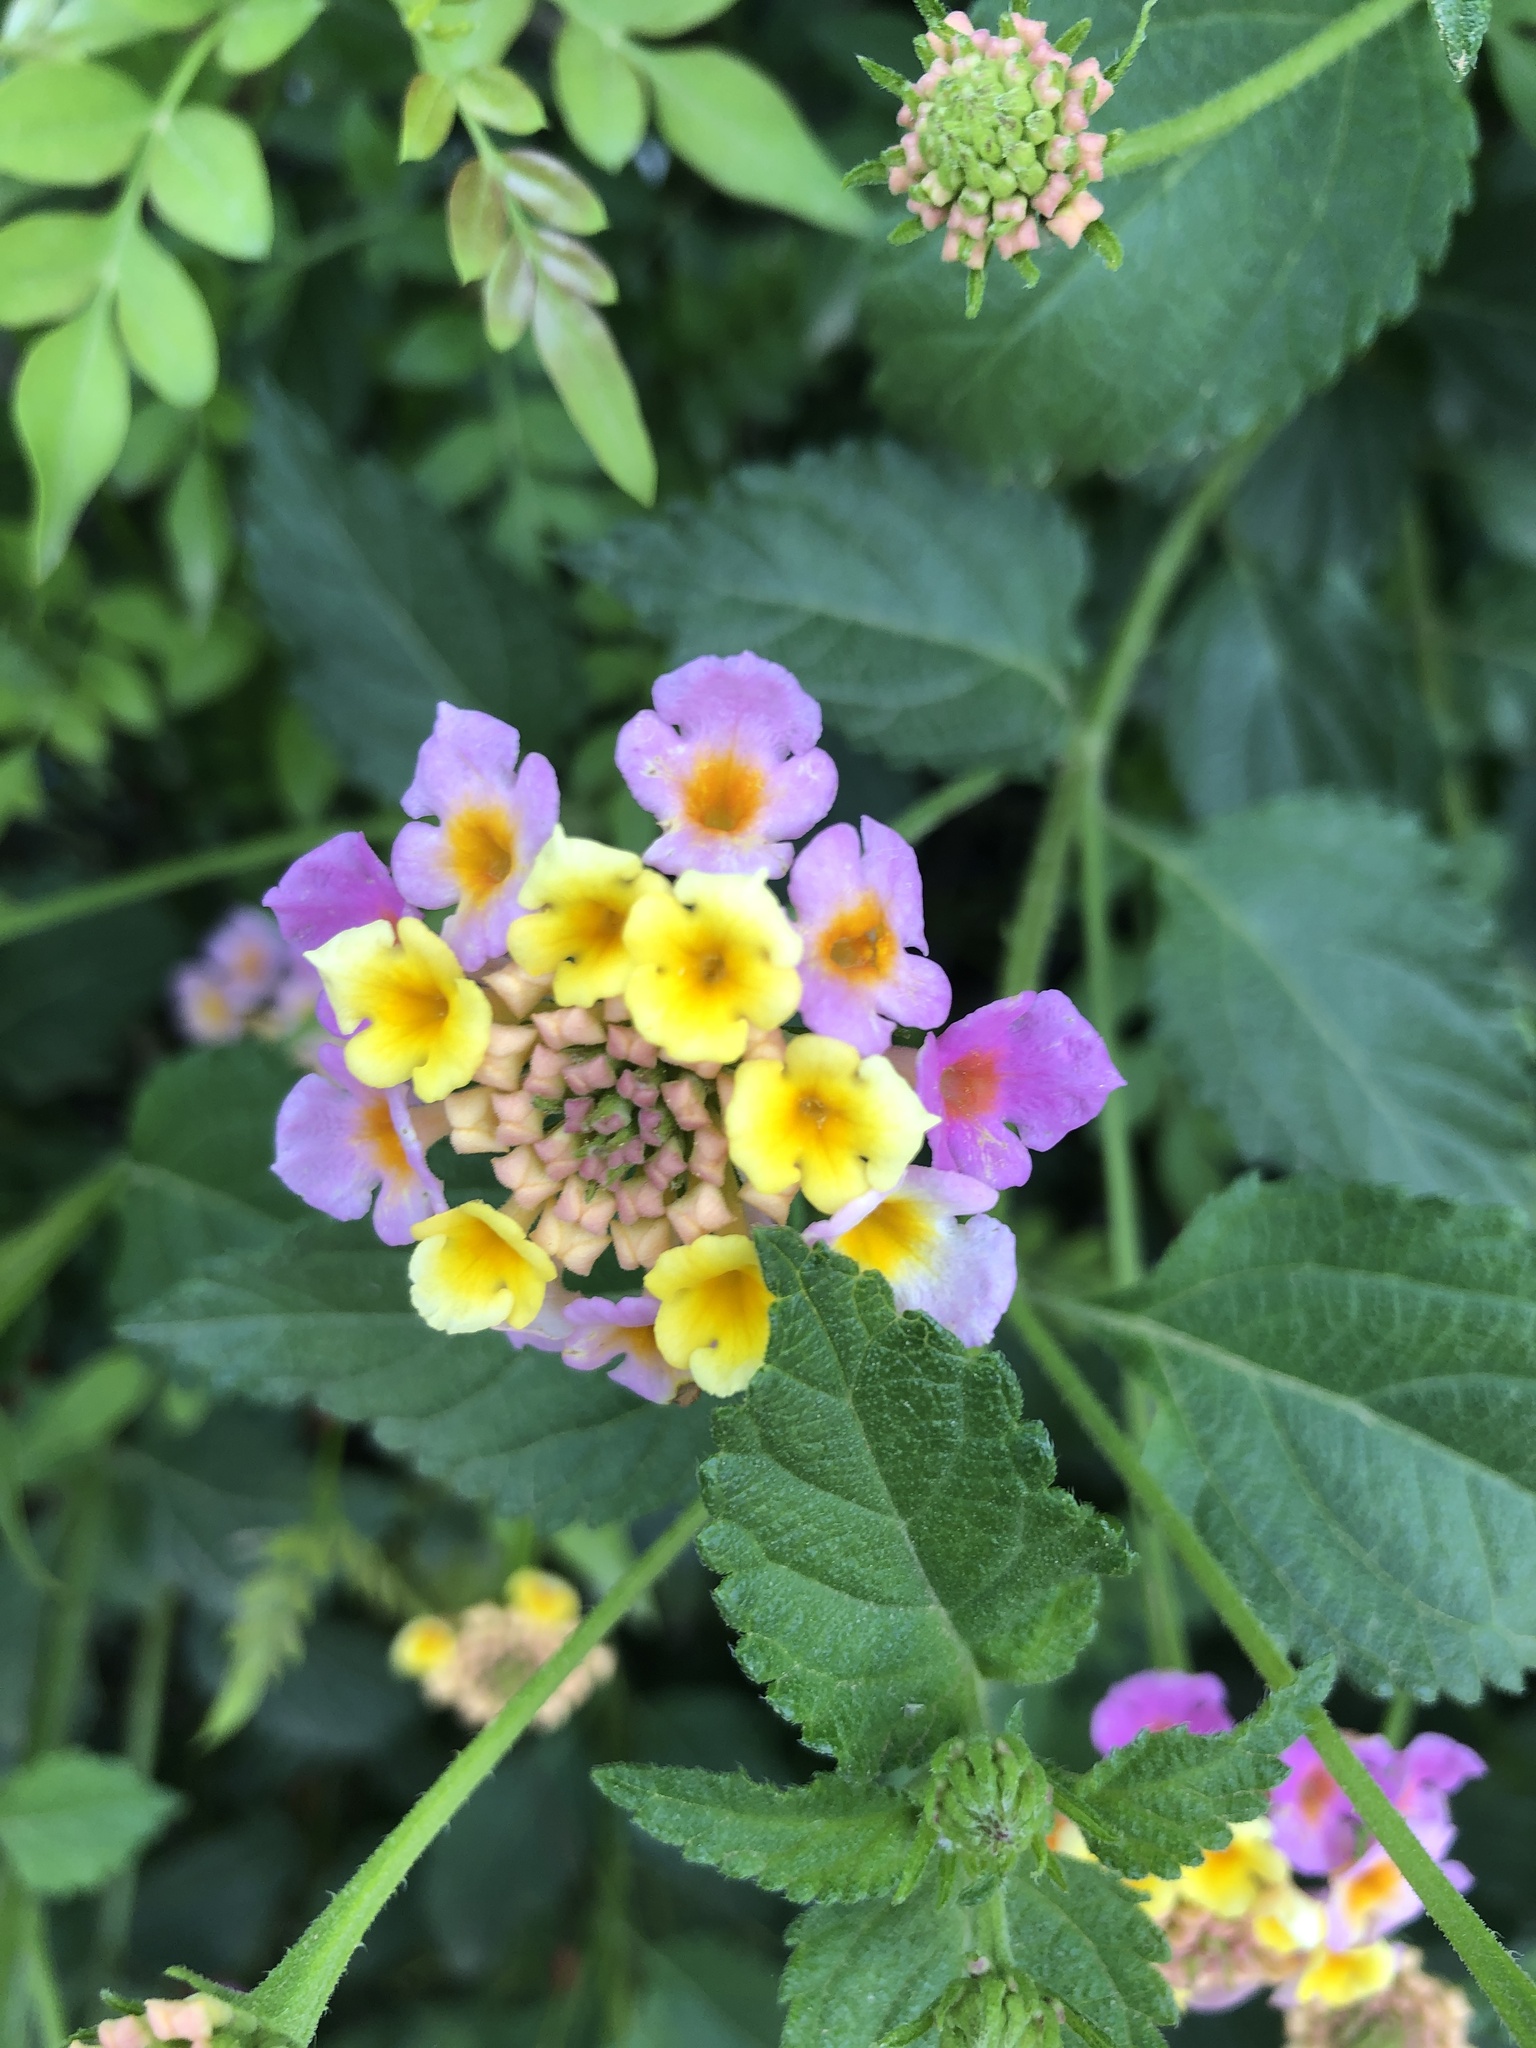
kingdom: Plantae
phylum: Tracheophyta
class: Magnoliopsida
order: Lamiales
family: Verbenaceae
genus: Lantana
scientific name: Lantana camara
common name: Lantana
